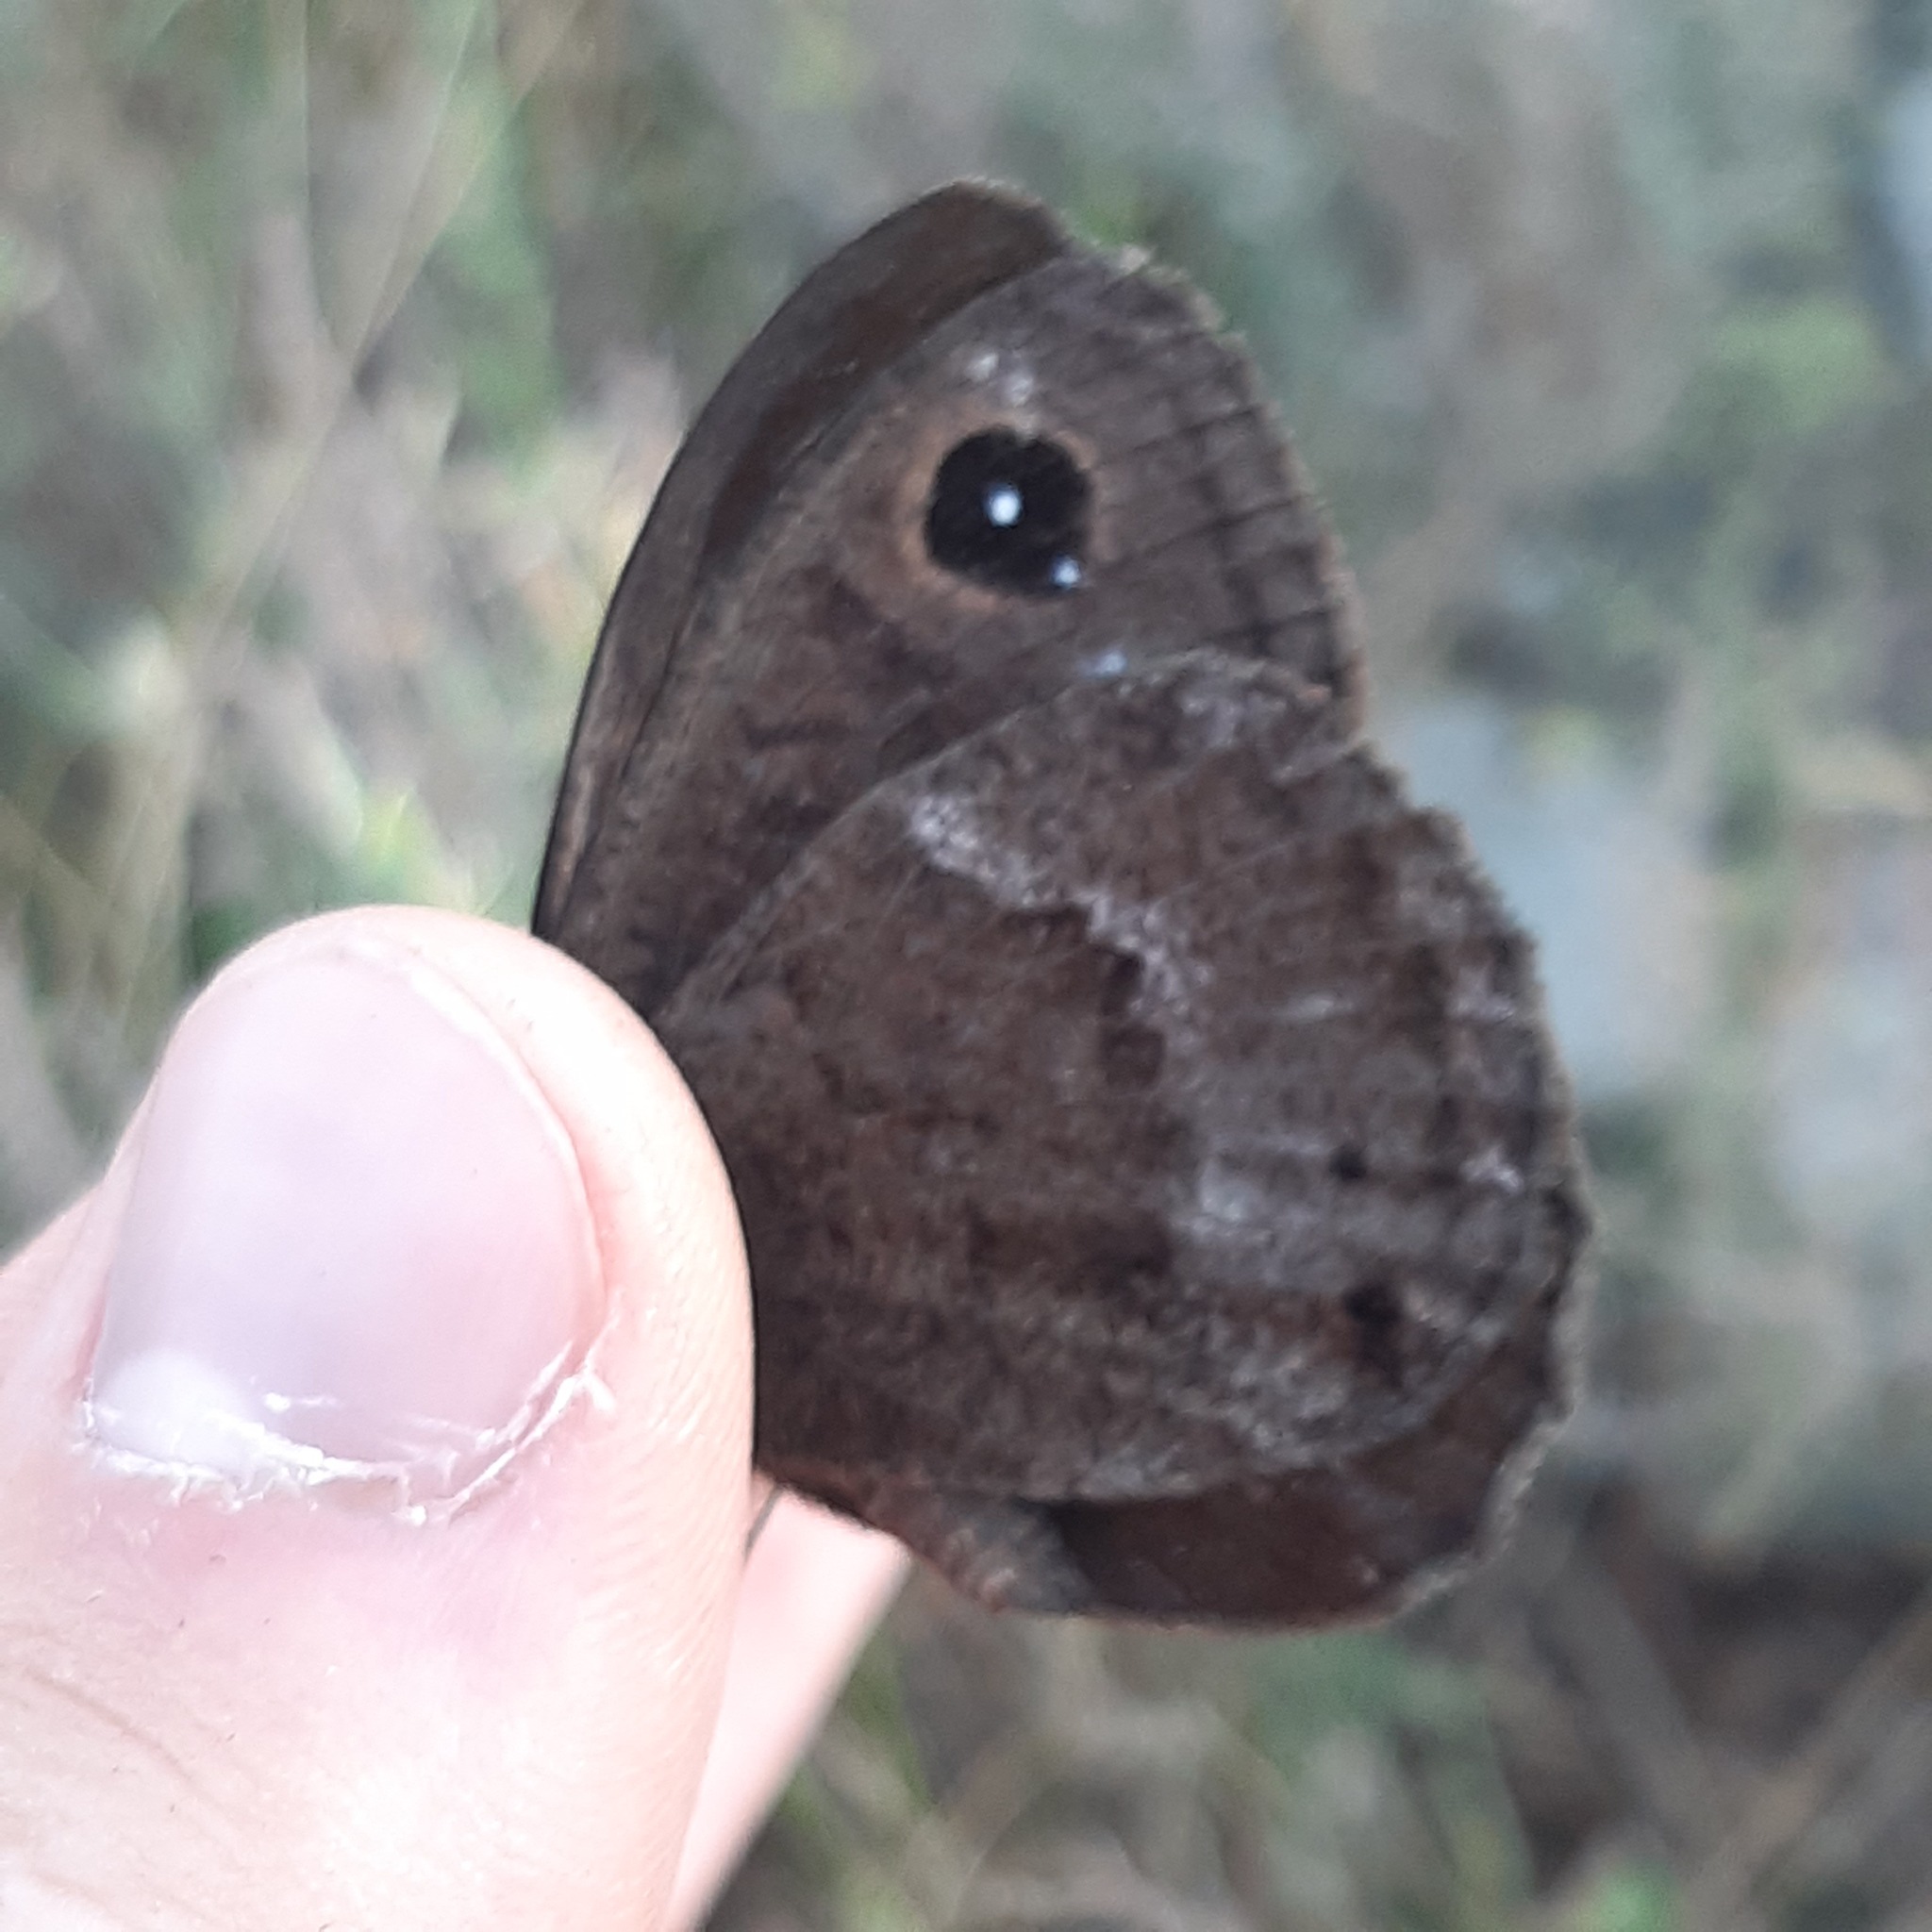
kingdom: Animalia
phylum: Arthropoda
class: Insecta
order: Lepidoptera
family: Nymphalidae
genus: Satyrus
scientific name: Satyrus ferula
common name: Great sooty satyr
